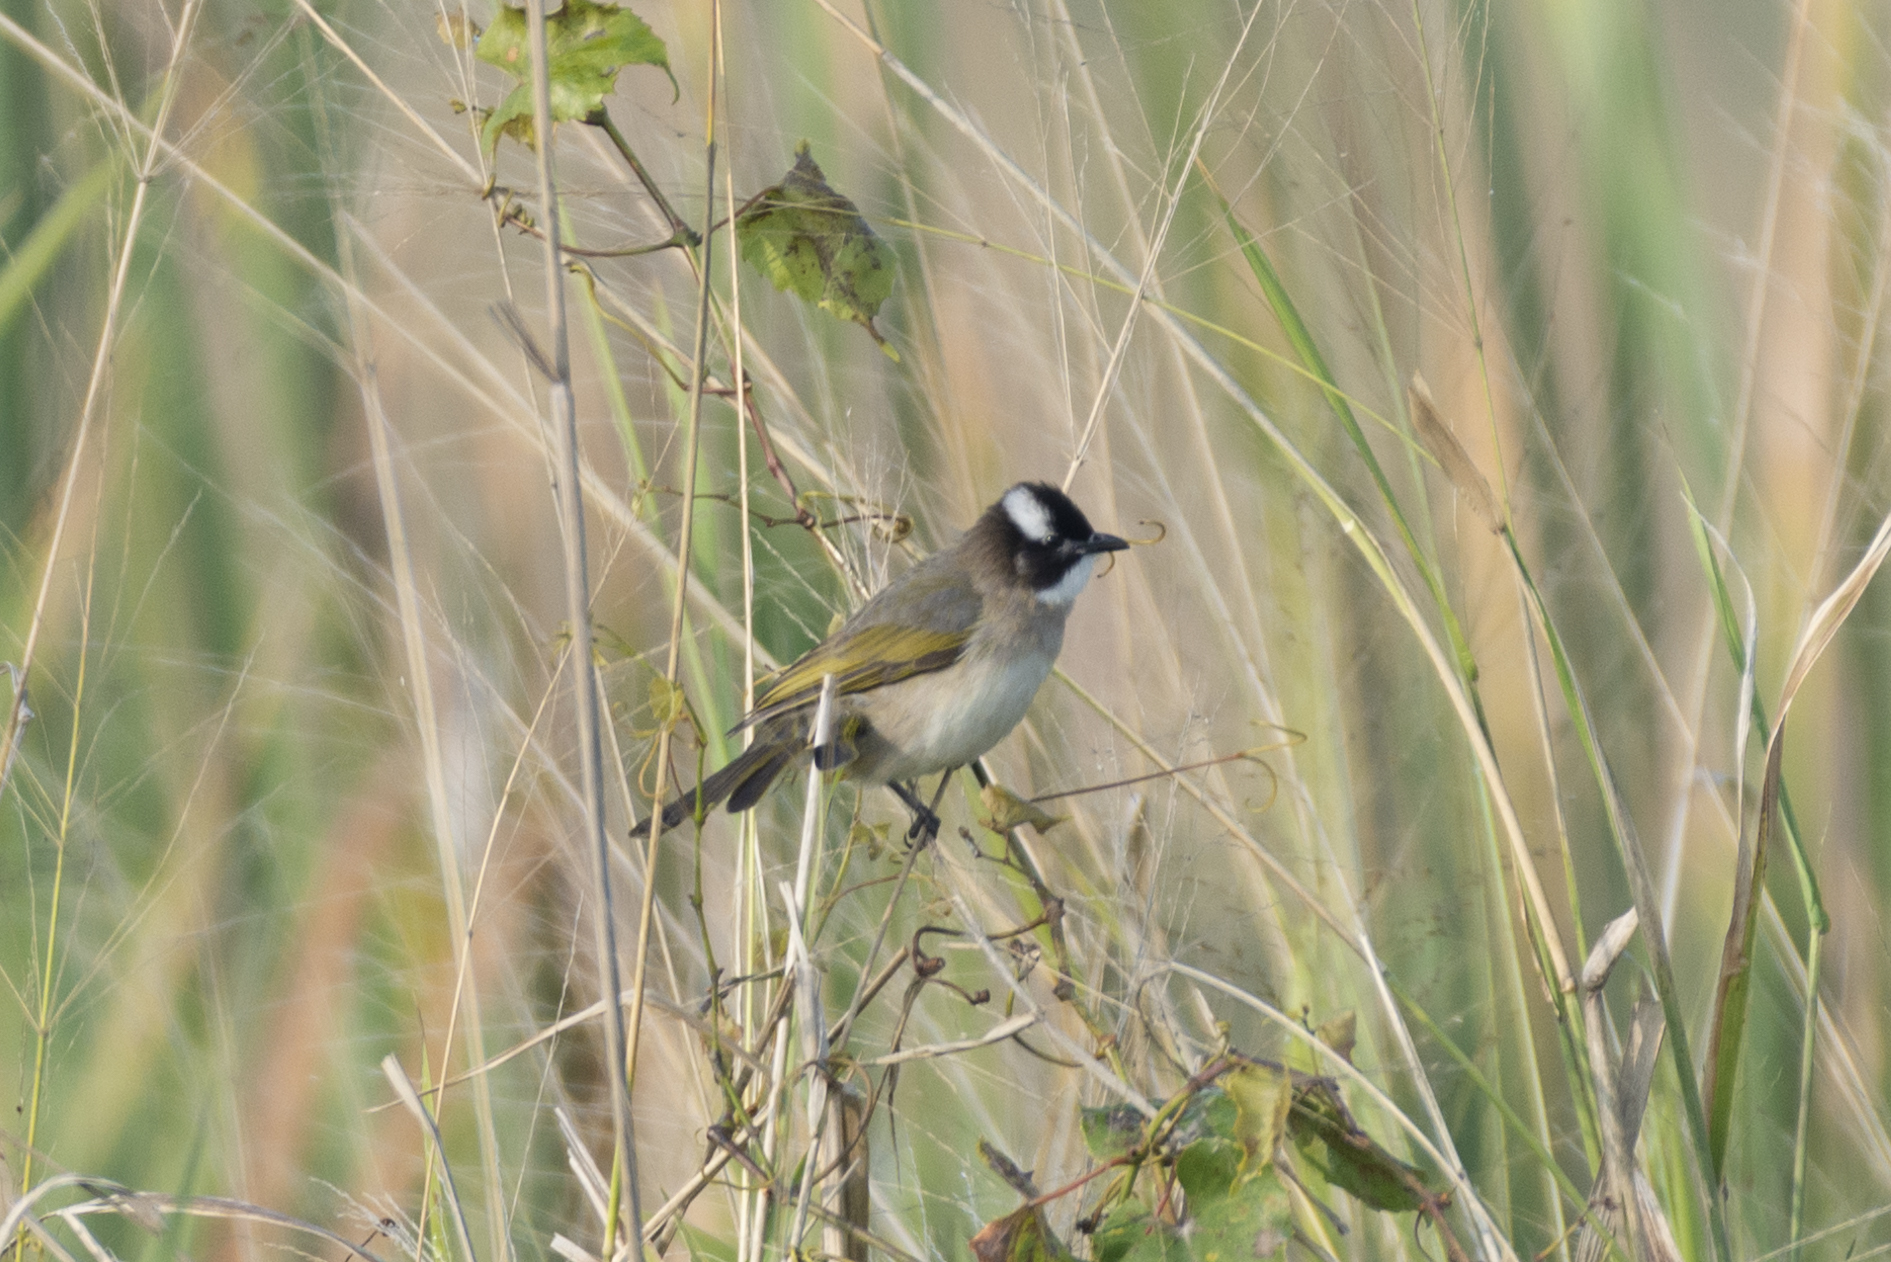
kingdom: Animalia
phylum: Chordata
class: Aves
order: Passeriformes
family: Pycnonotidae
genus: Pycnonotus
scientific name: Pycnonotus sinensis
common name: Light-vented bulbul
